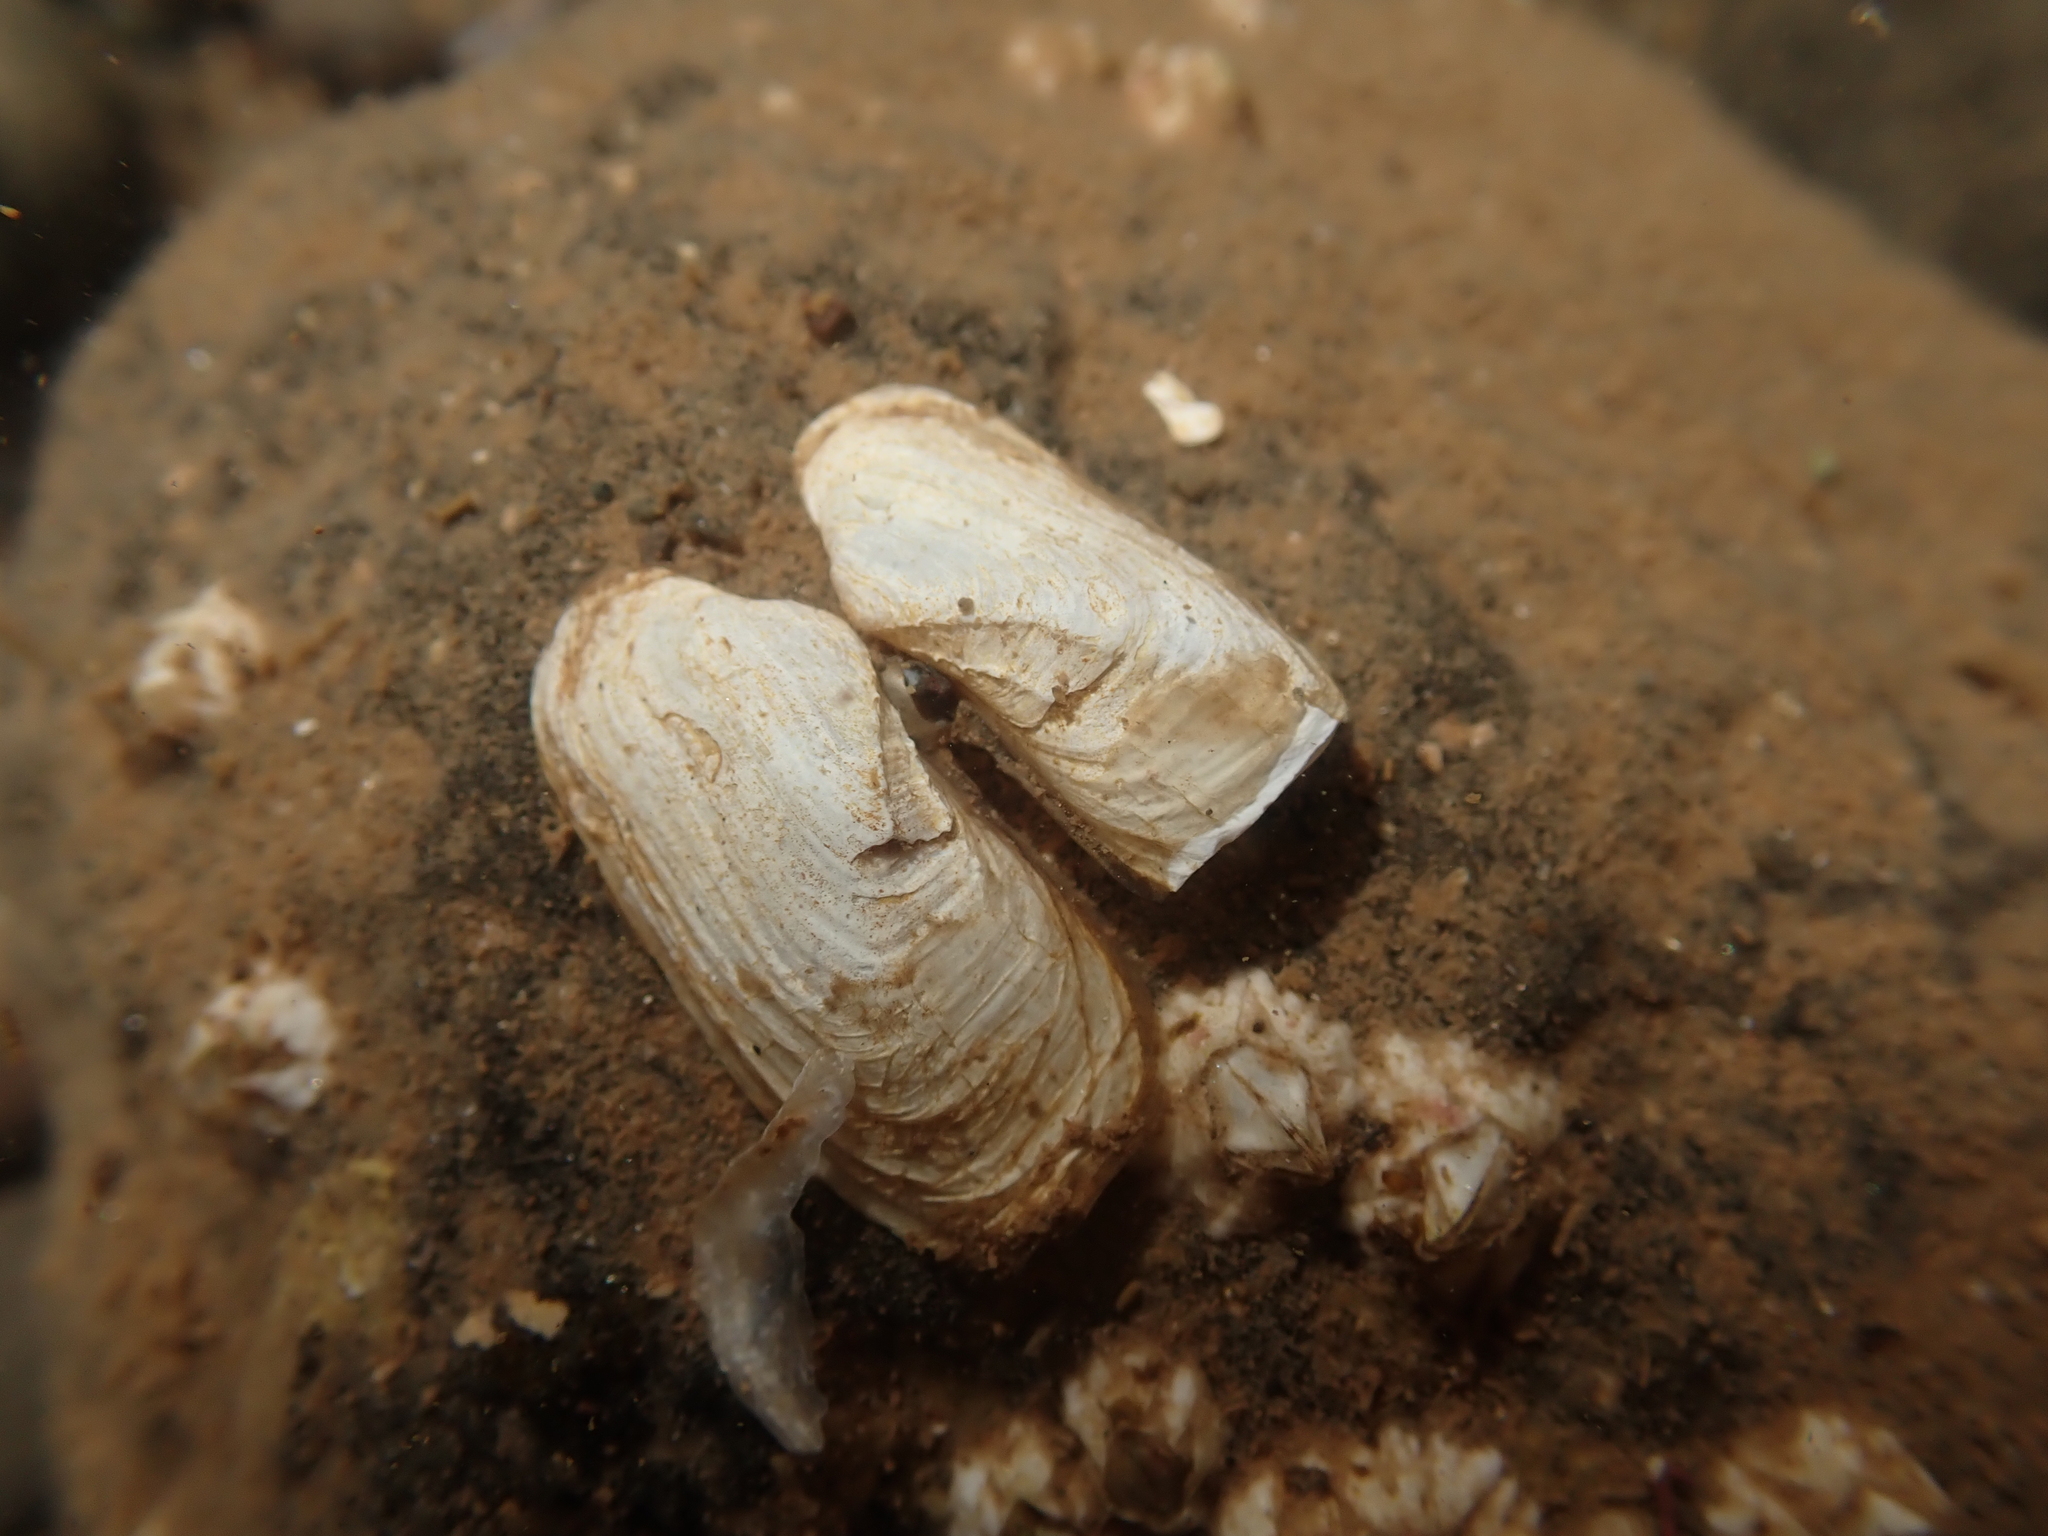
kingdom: Animalia
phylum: Mollusca
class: Bivalvia
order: Adapedonta
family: Hiatellidae
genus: Hiatella
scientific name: Hiatella arctica
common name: Arctic hiatella
